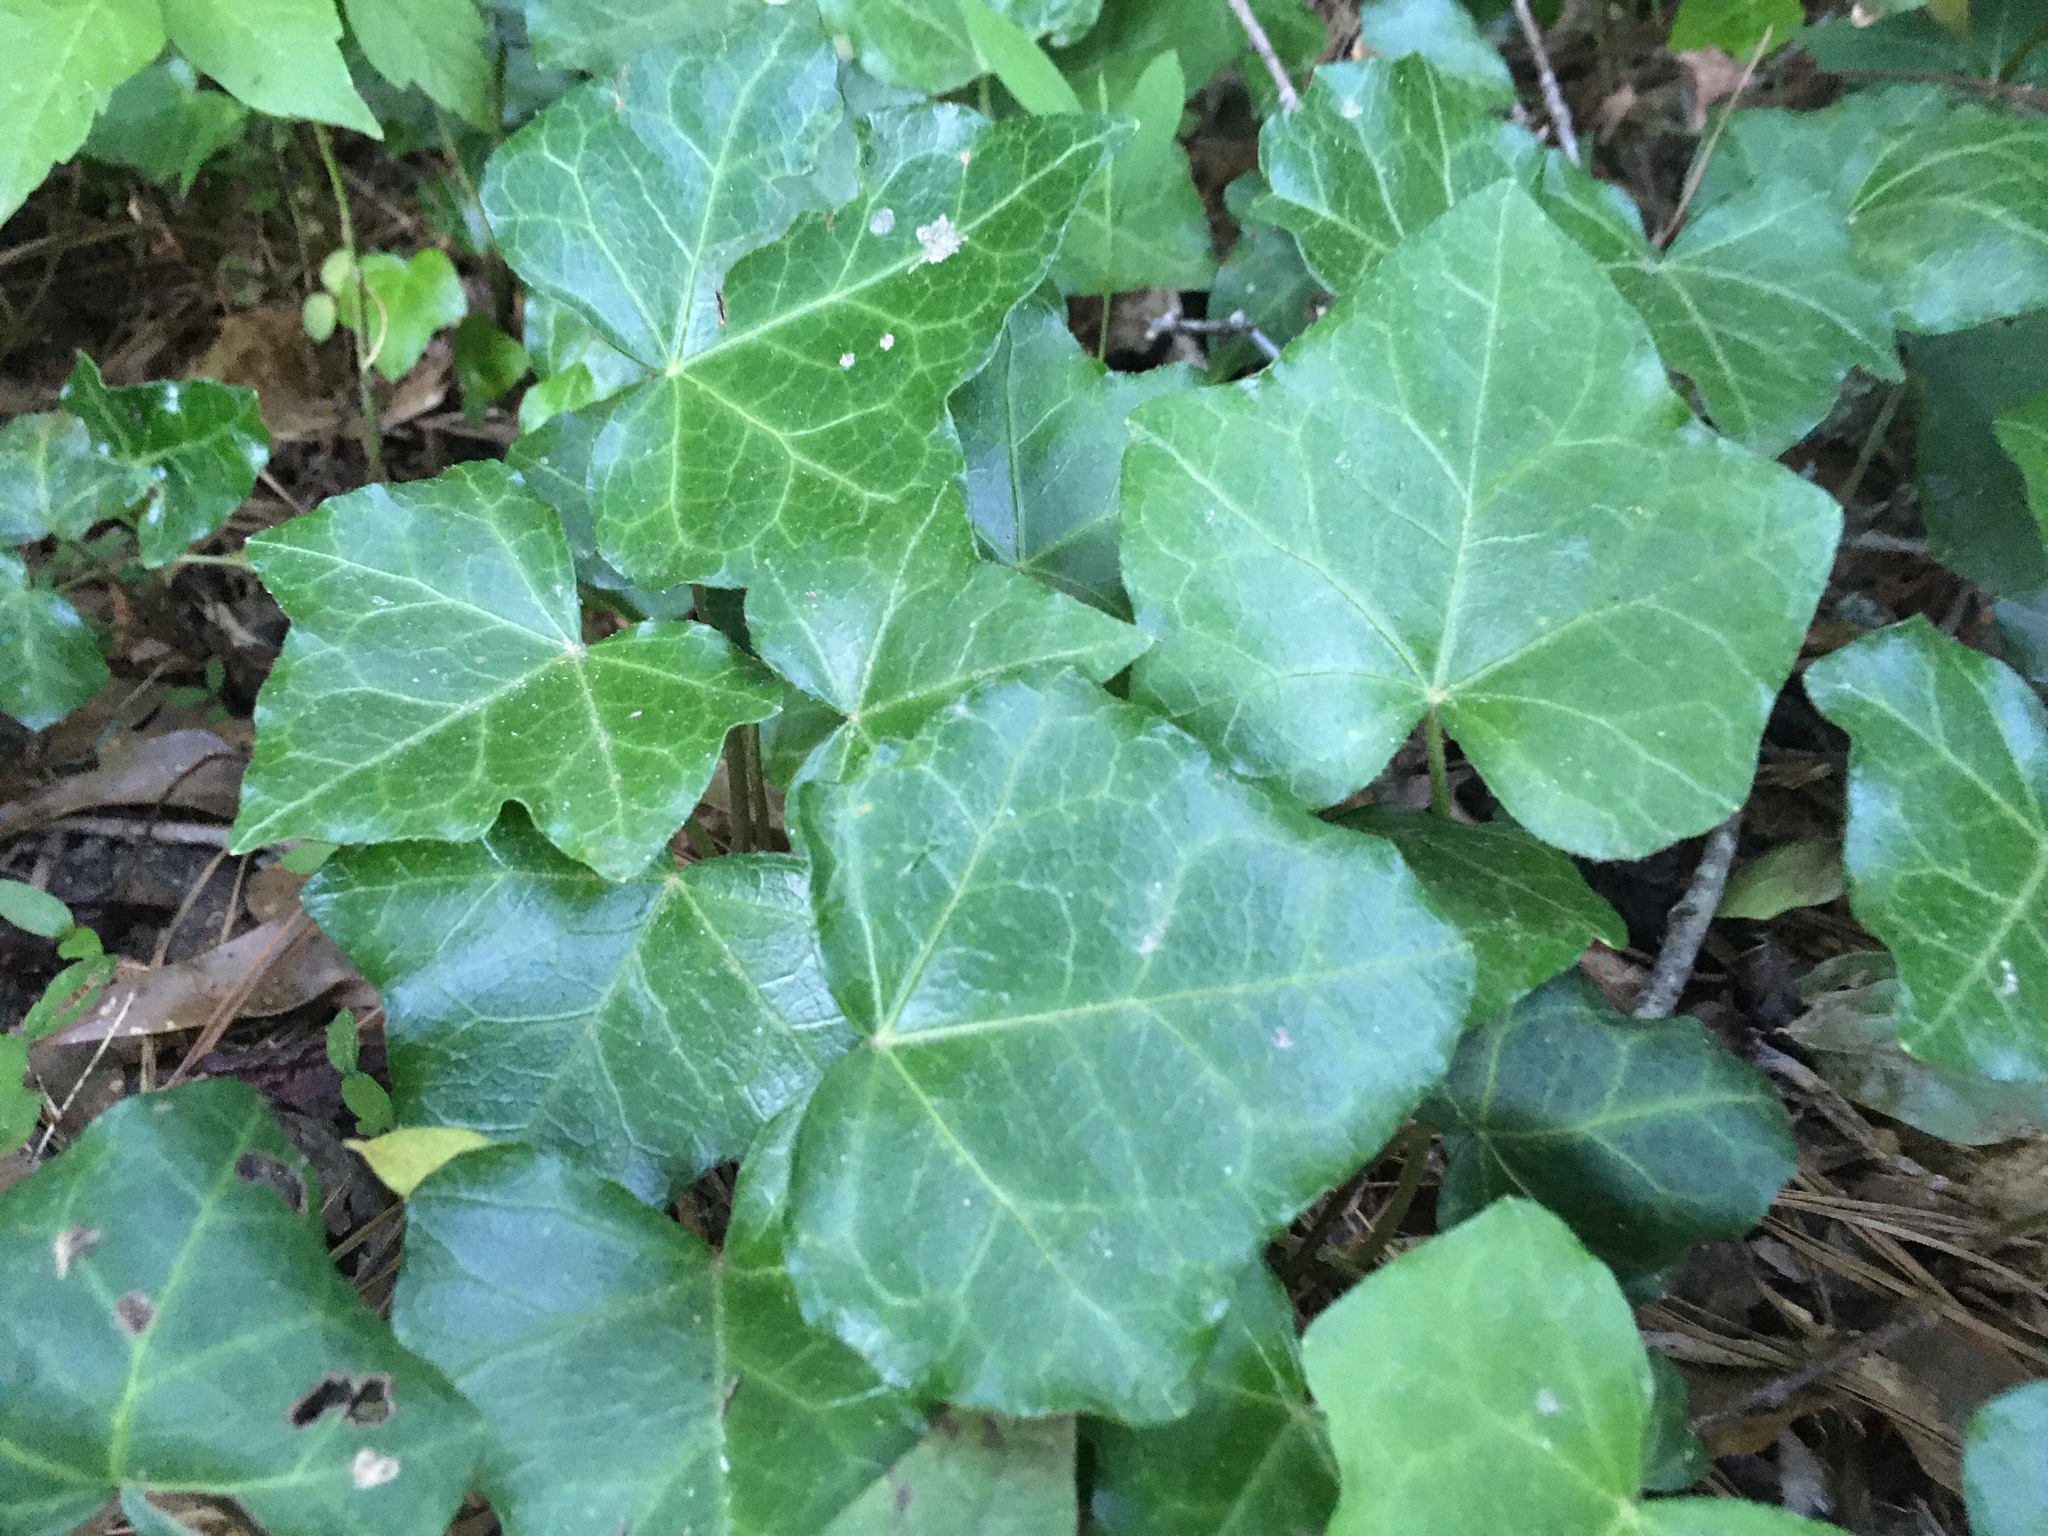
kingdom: Plantae
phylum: Tracheophyta
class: Magnoliopsida
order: Apiales
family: Araliaceae
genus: Hedera
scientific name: Hedera helix
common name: Ivy
